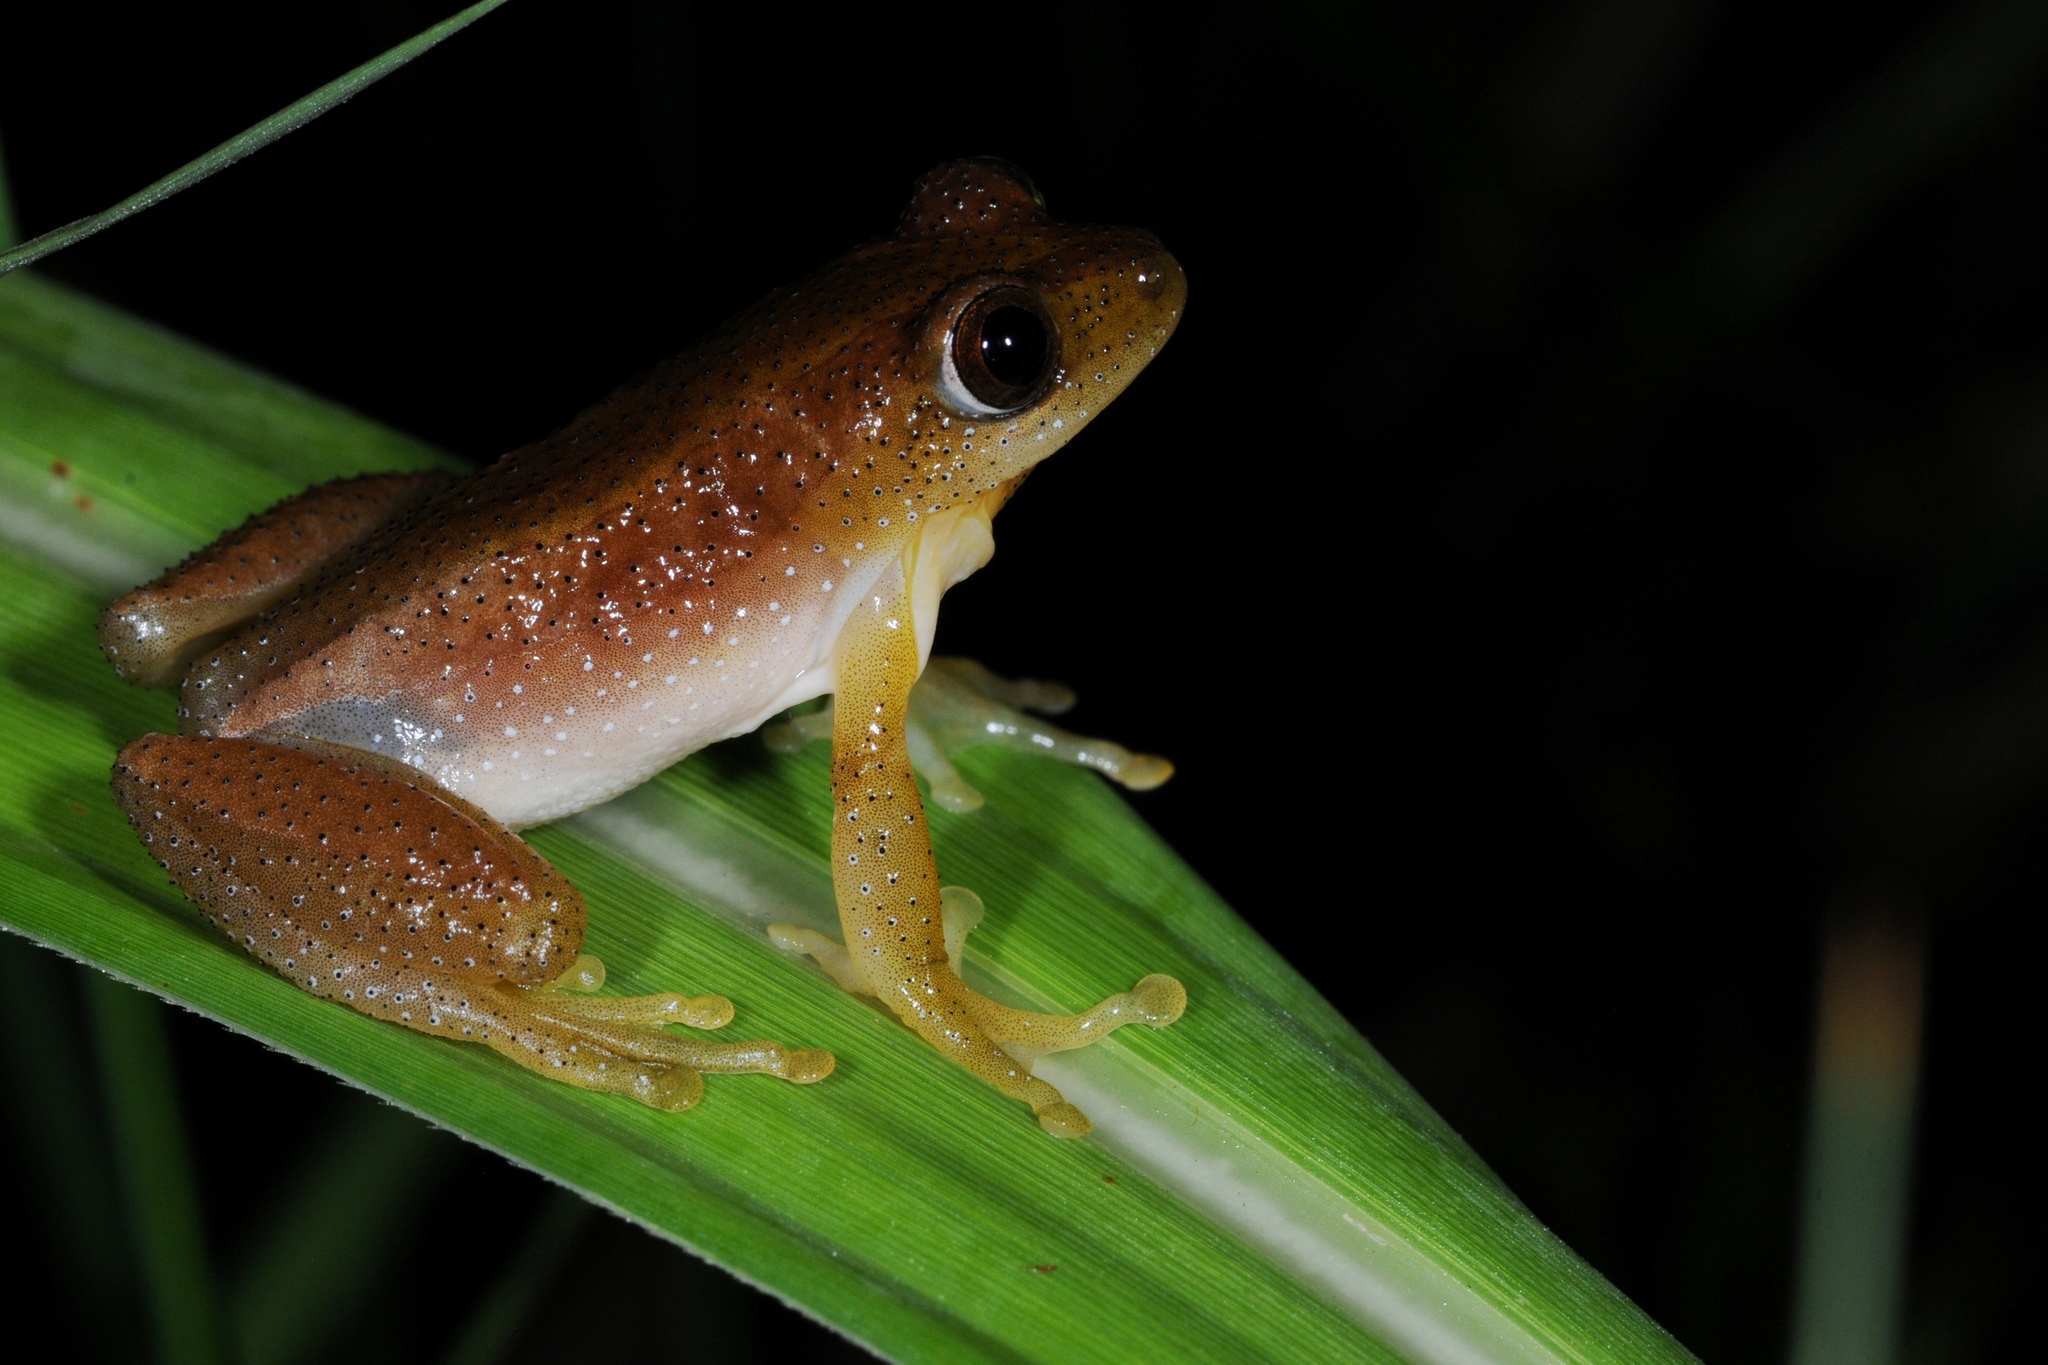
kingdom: Animalia
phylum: Chordata
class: Amphibia
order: Anura
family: Hyperoliidae
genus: Afrixalus
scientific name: Afrixalus fornasini
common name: Fornasini's spiny reed frog
